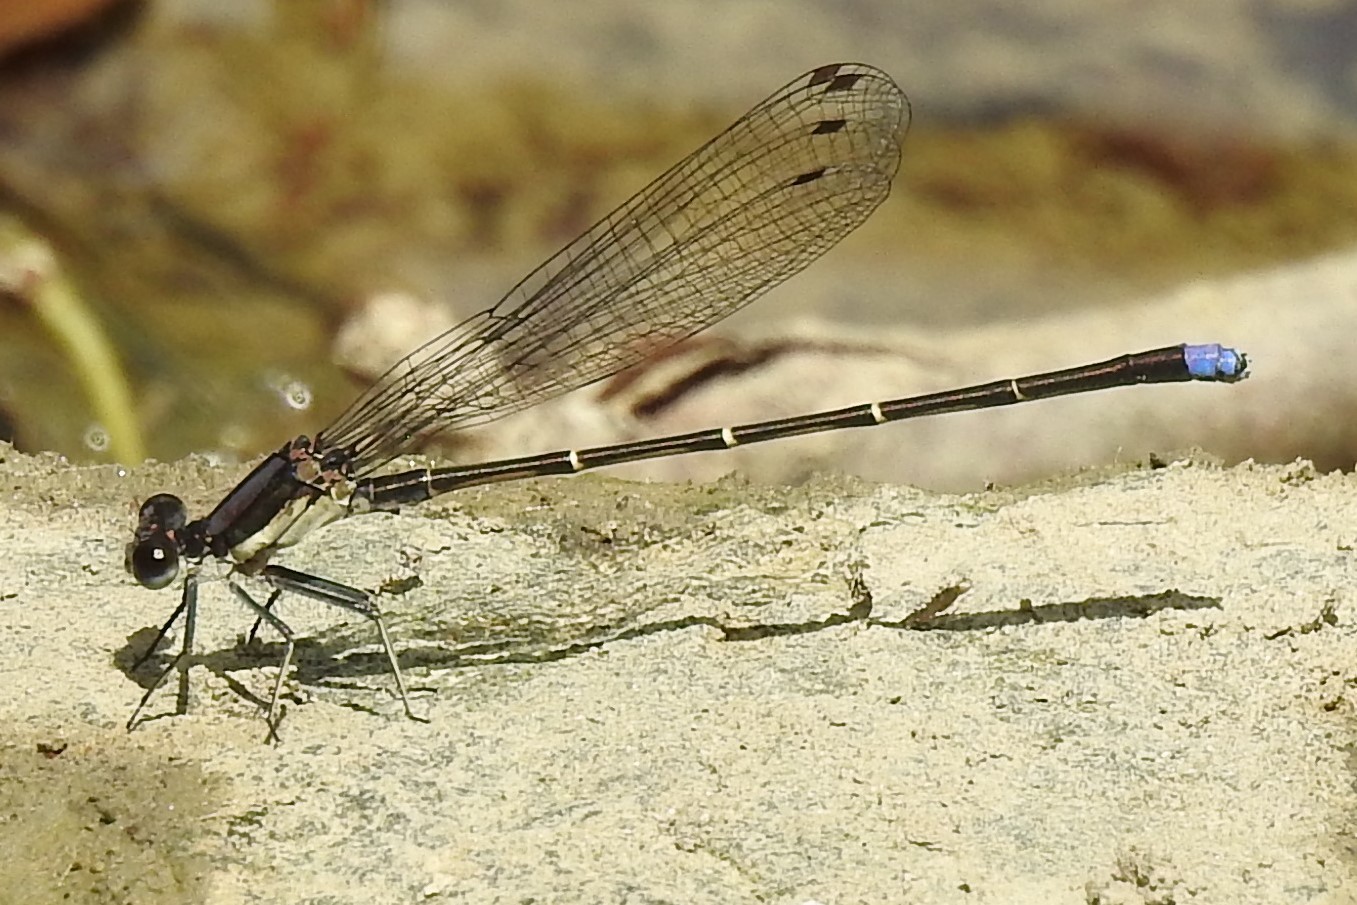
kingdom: Animalia
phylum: Arthropoda
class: Insecta
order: Odonata
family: Coenagrionidae
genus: Argia
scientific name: Argia tibialis
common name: Blue-tipped dancer
